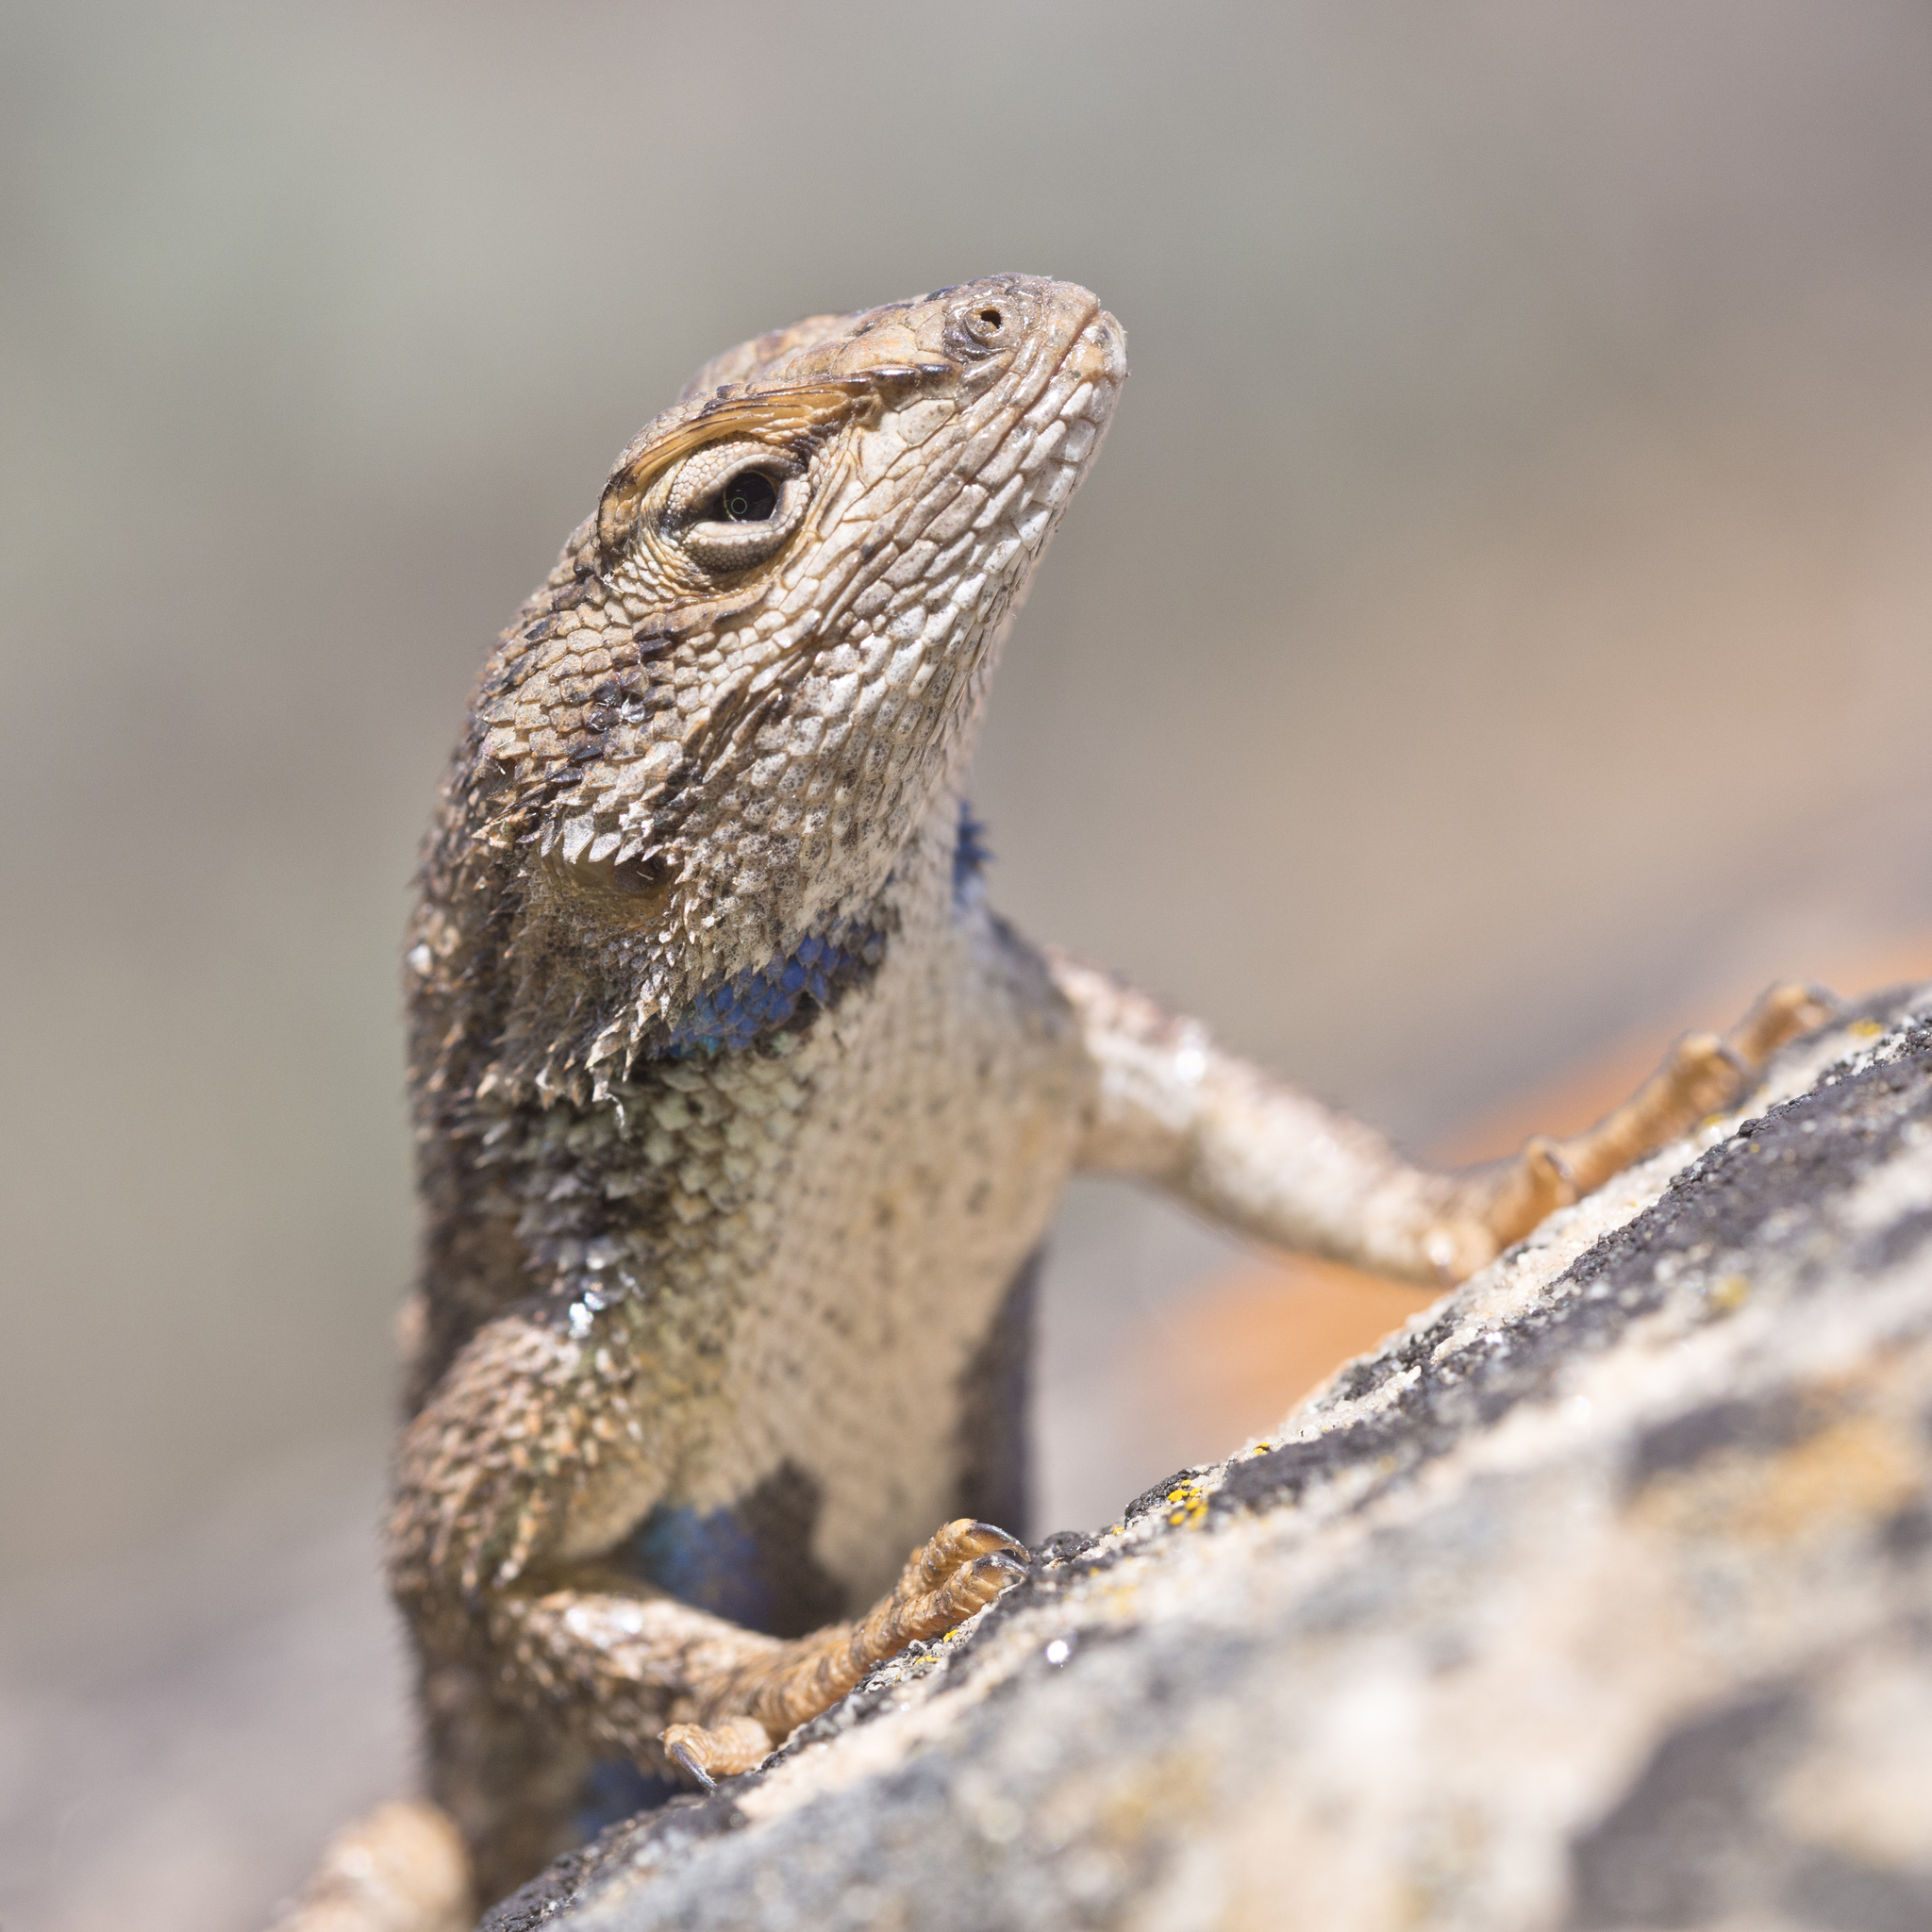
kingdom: Animalia
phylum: Chordata
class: Squamata
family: Phrynosomatidae
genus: Sceloporus
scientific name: Sceloporus tristichus
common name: Plateau fence lizard
